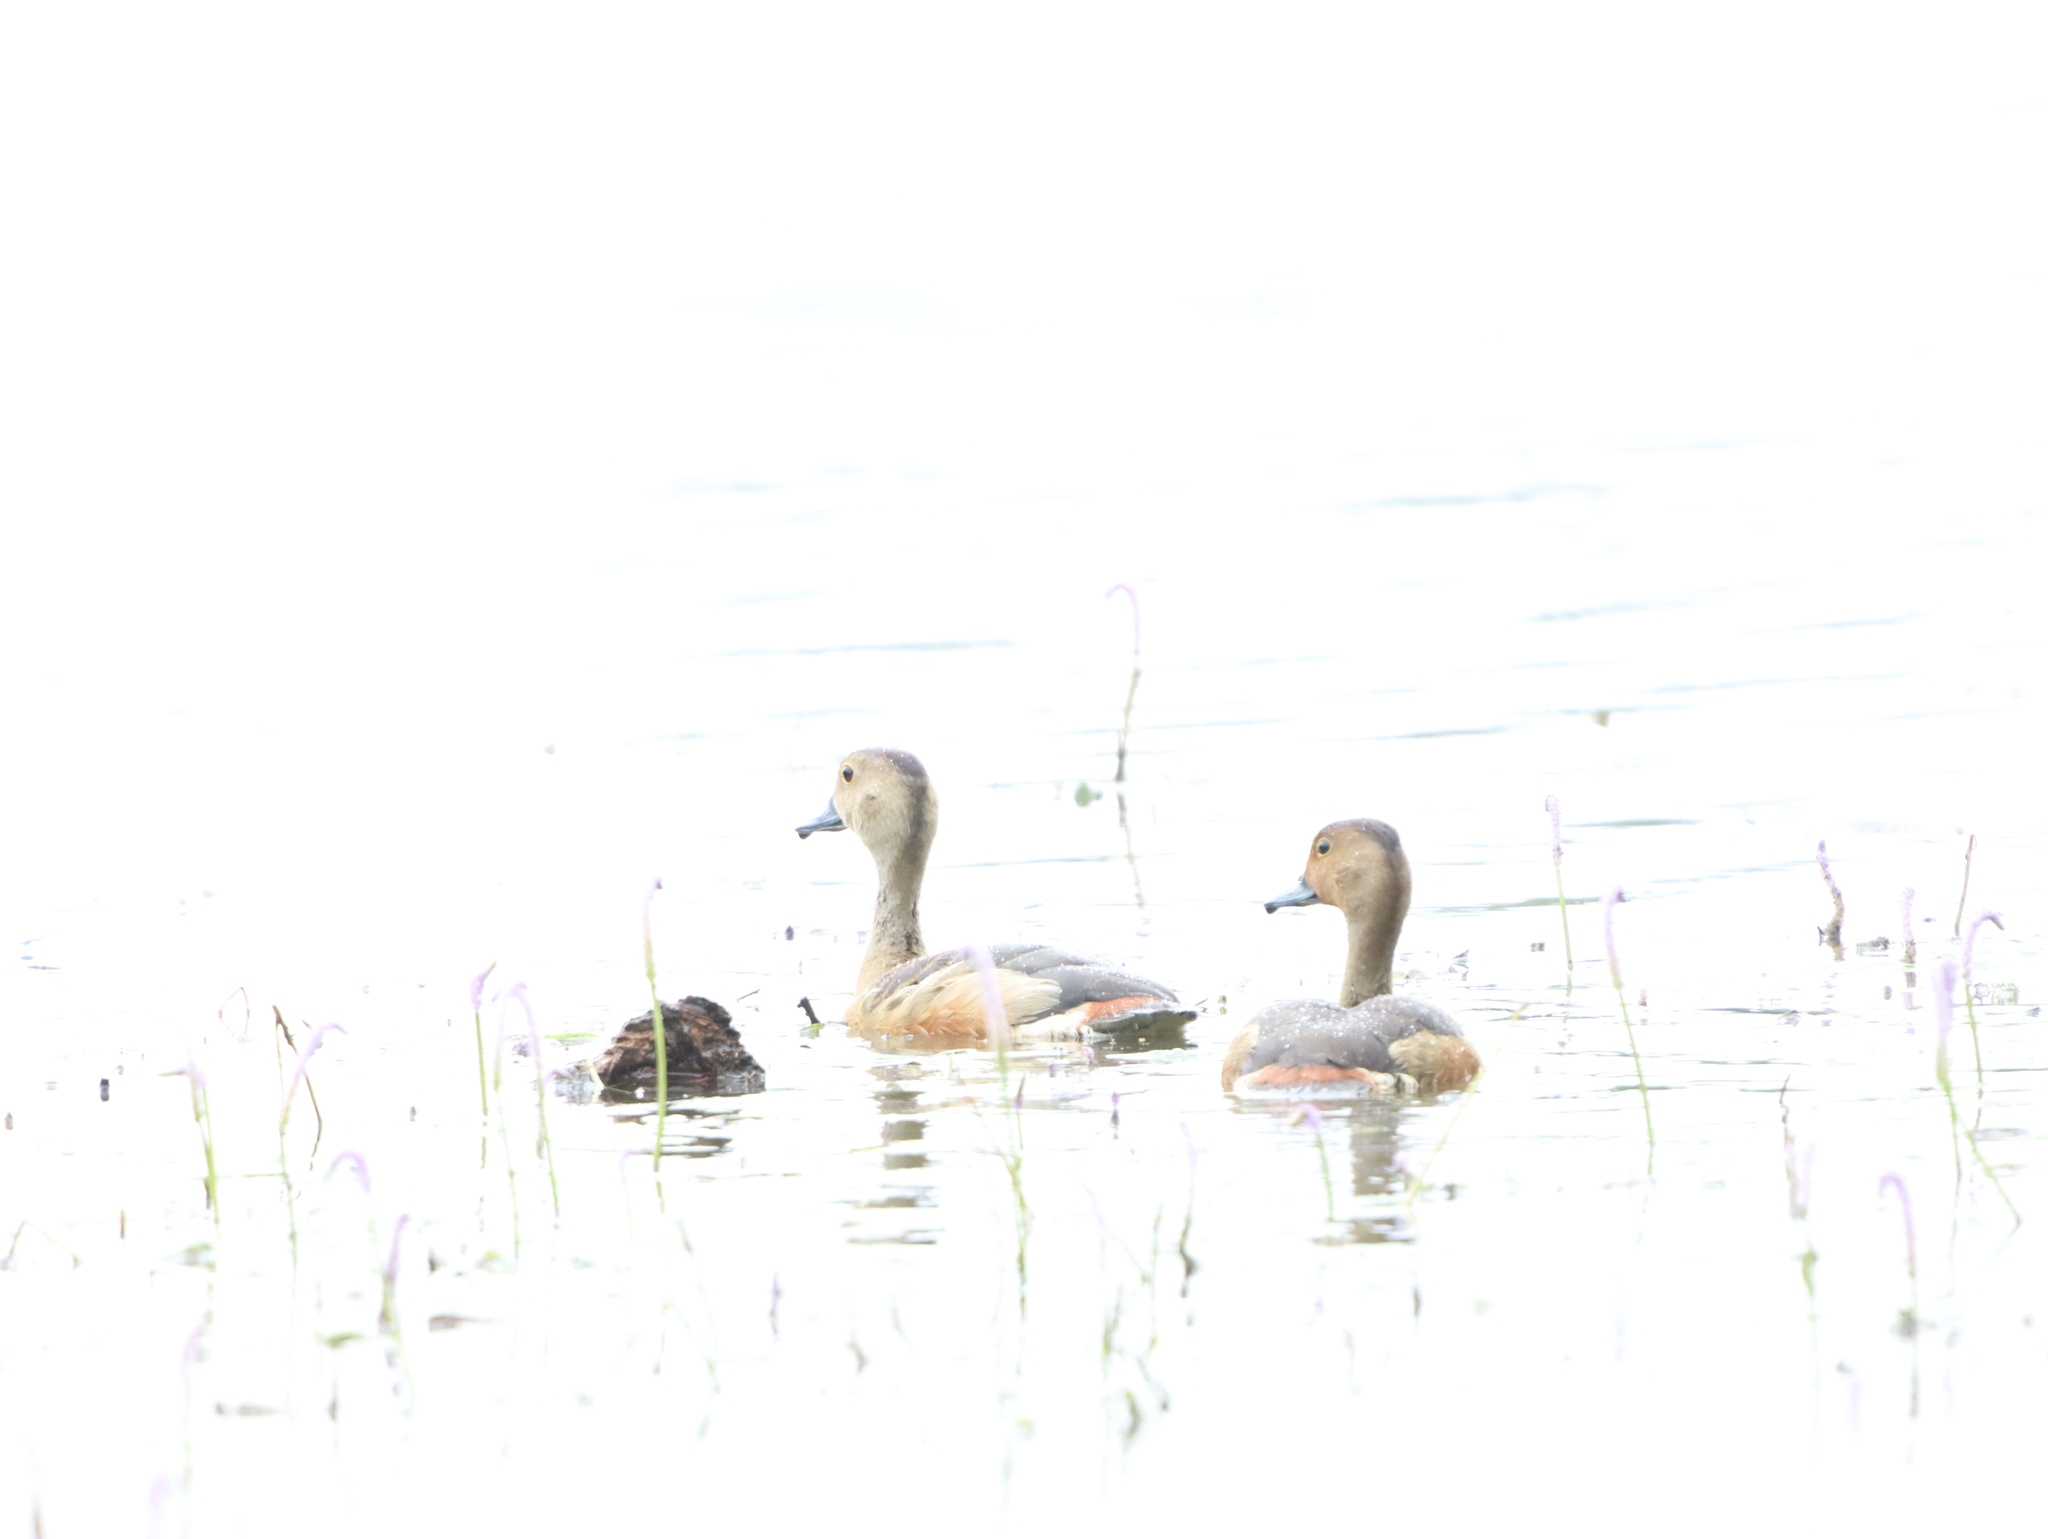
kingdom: Animalia
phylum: Chordata
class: Aves
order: Anseriformes
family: Anatidae
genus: Dendrocygna
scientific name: Dendrocygna javanica
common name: Lesser whistling-duck
